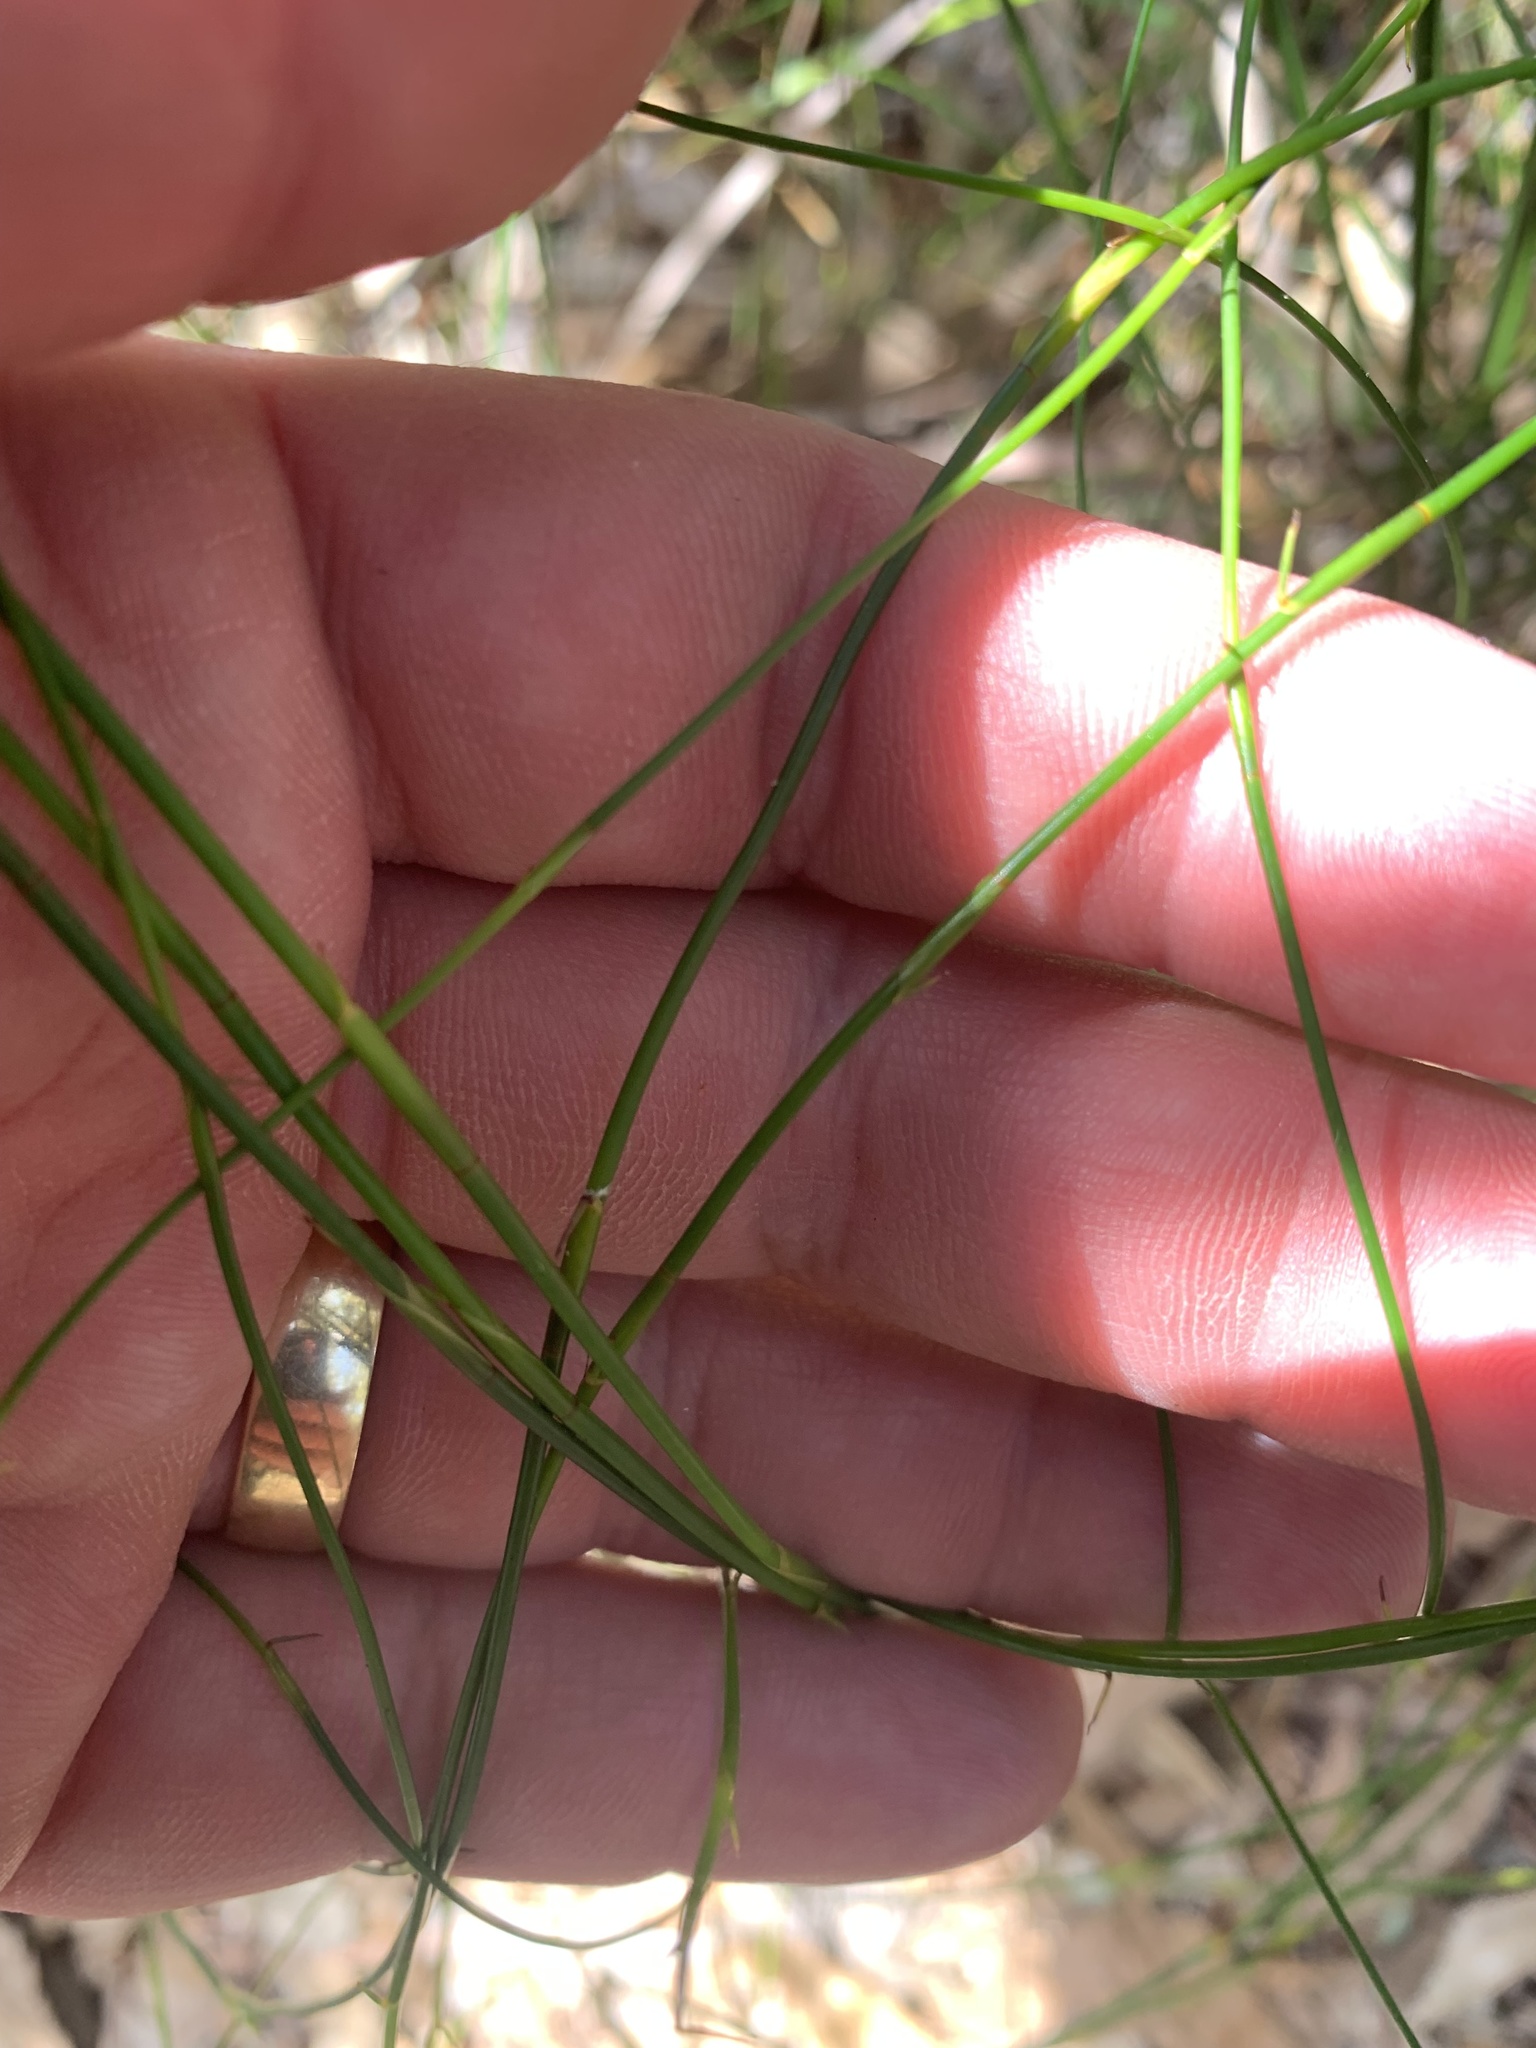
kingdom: Plantae
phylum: Tracheophyta
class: Liliopsida
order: Poales
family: Restionaceae
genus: Empodisma
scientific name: Empodisma minus
